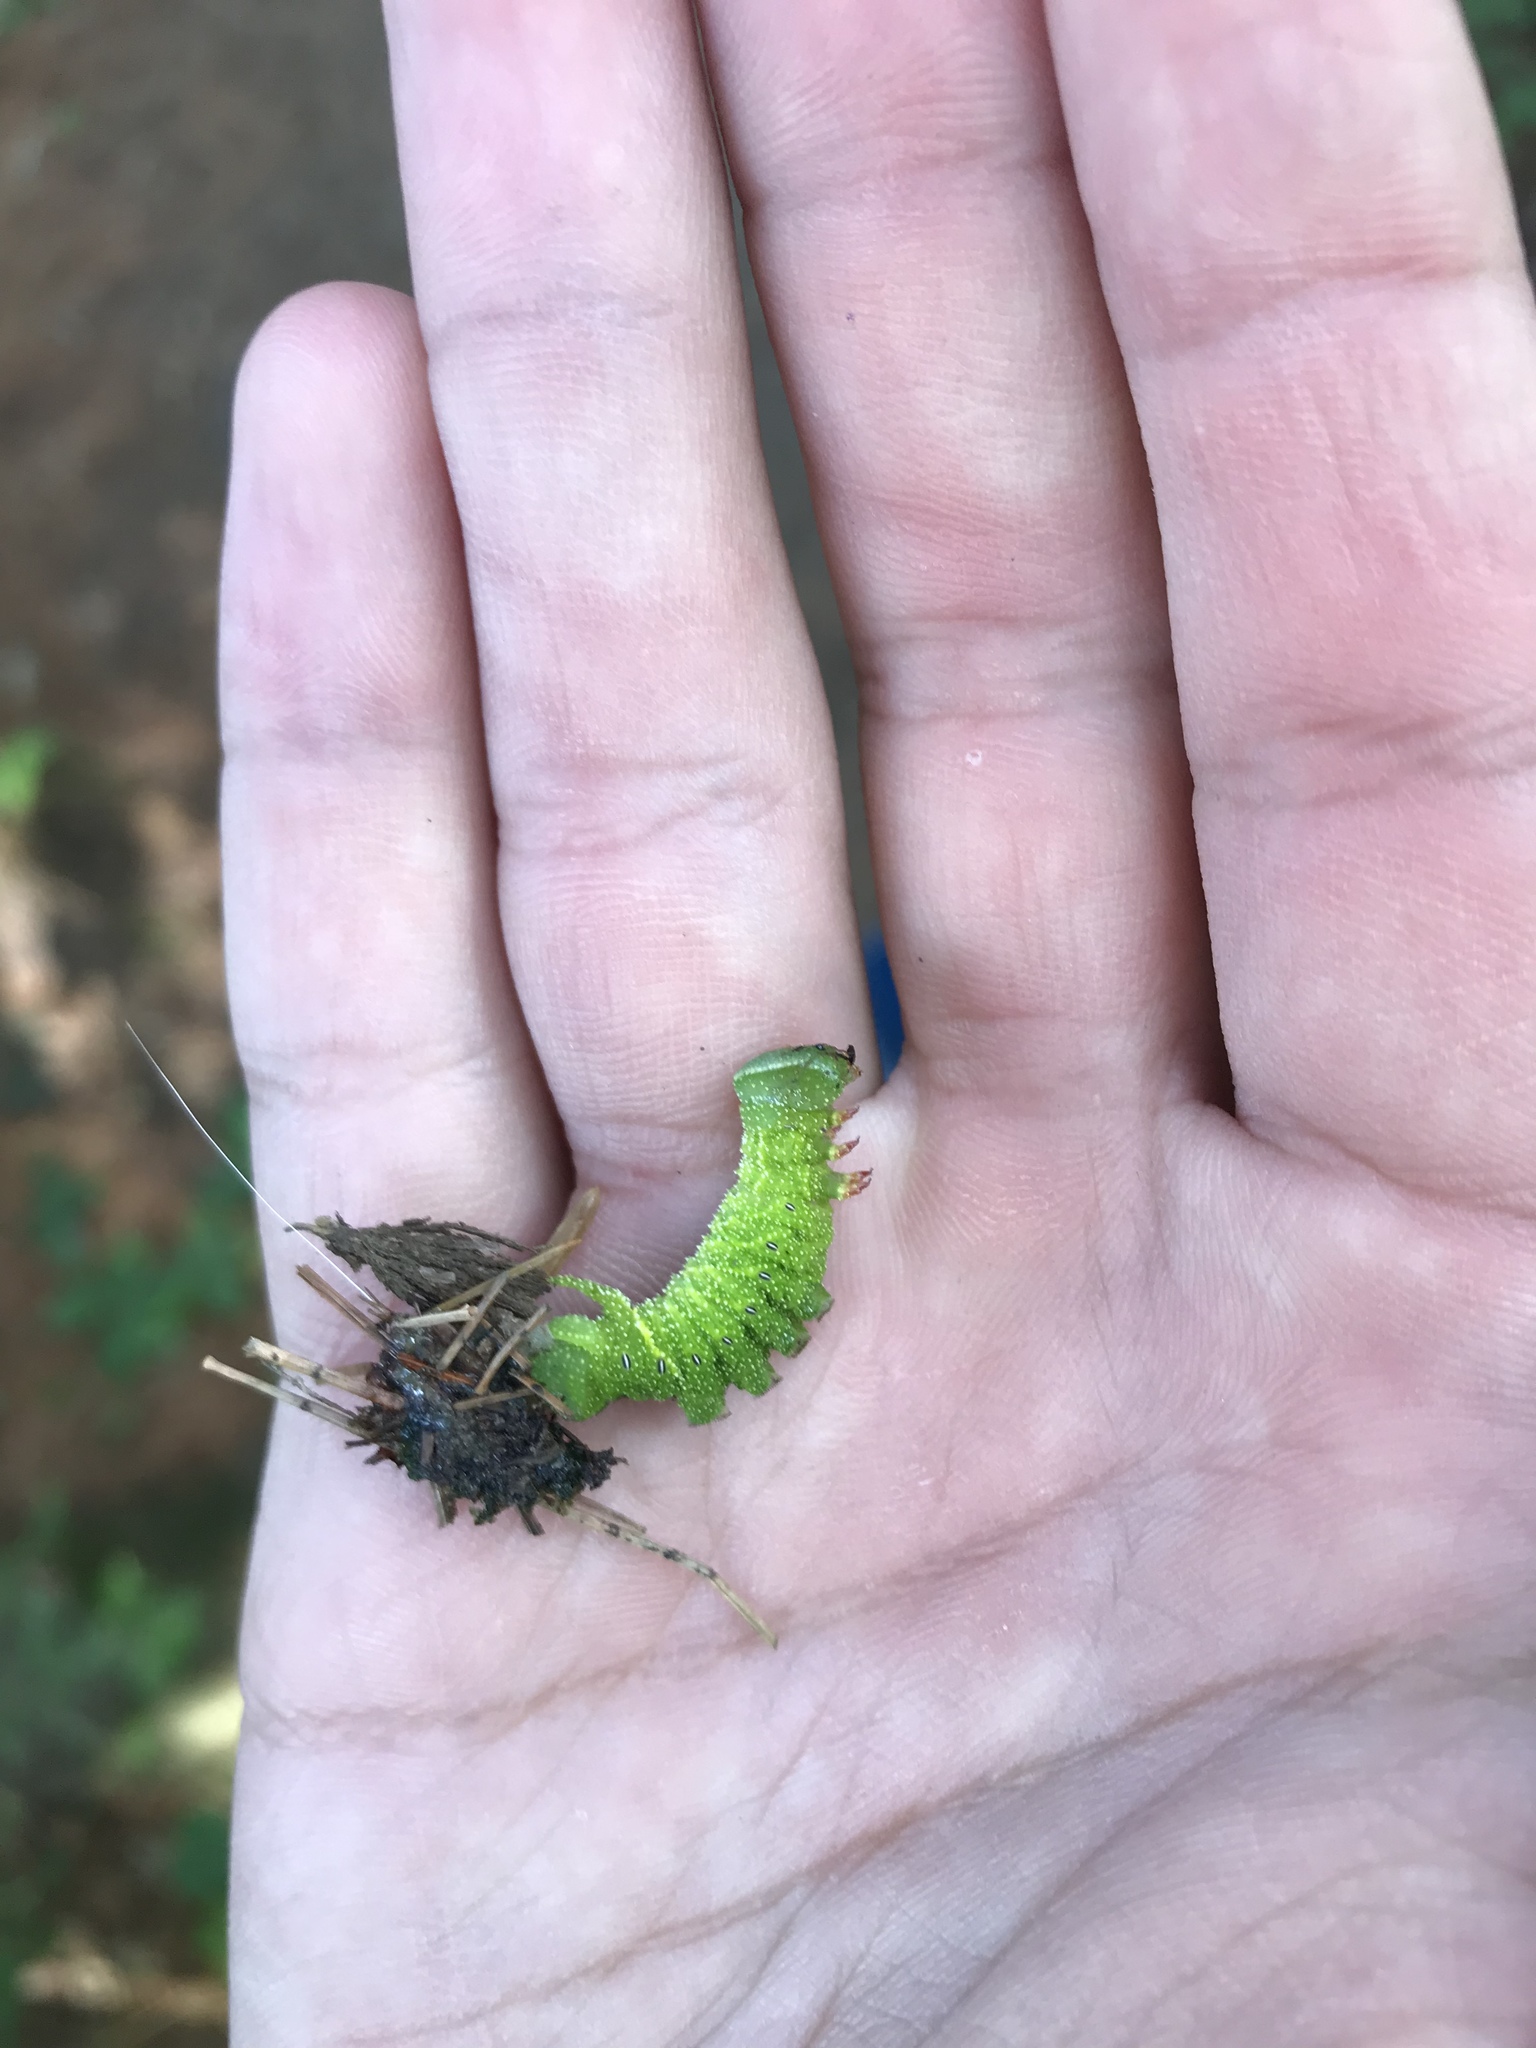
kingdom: Animalia
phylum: Arthropoda
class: Insecta
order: Lepidoptera
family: Sphingidae
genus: Paonias
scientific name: Paonias excaecata
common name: Blind-eyed sphinx
